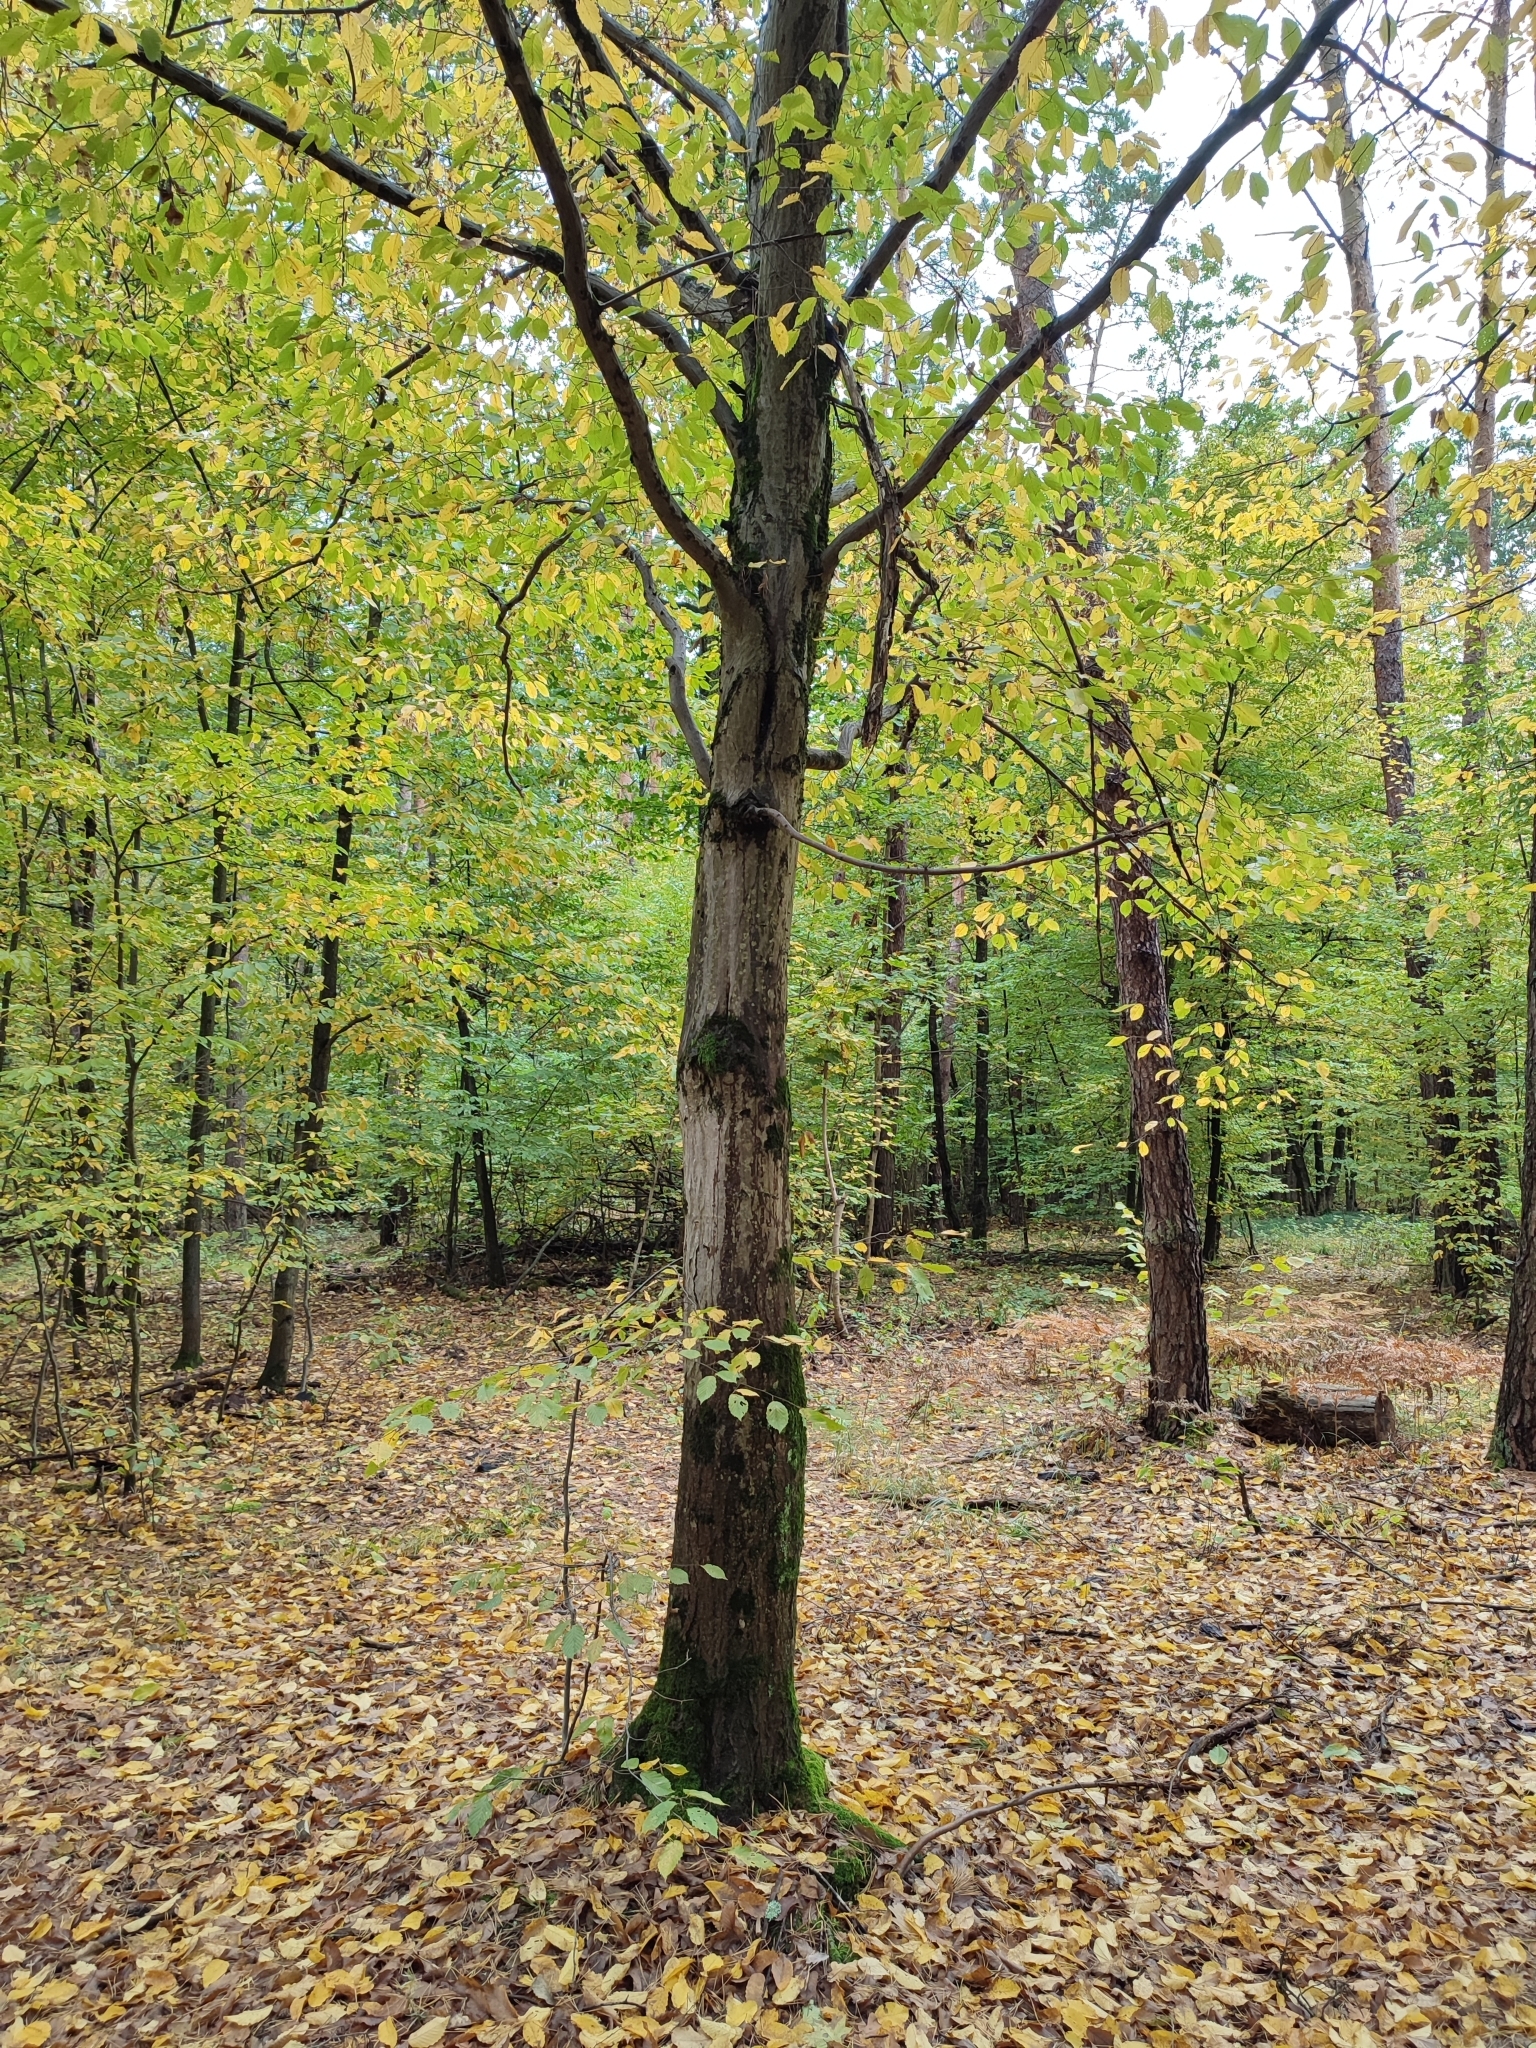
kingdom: Plantae
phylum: Tracheophyta
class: Magnoliopsida
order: Fagales
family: Betulaceae
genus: Carpinus
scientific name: Carpinus betulus
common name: Hornbeam
